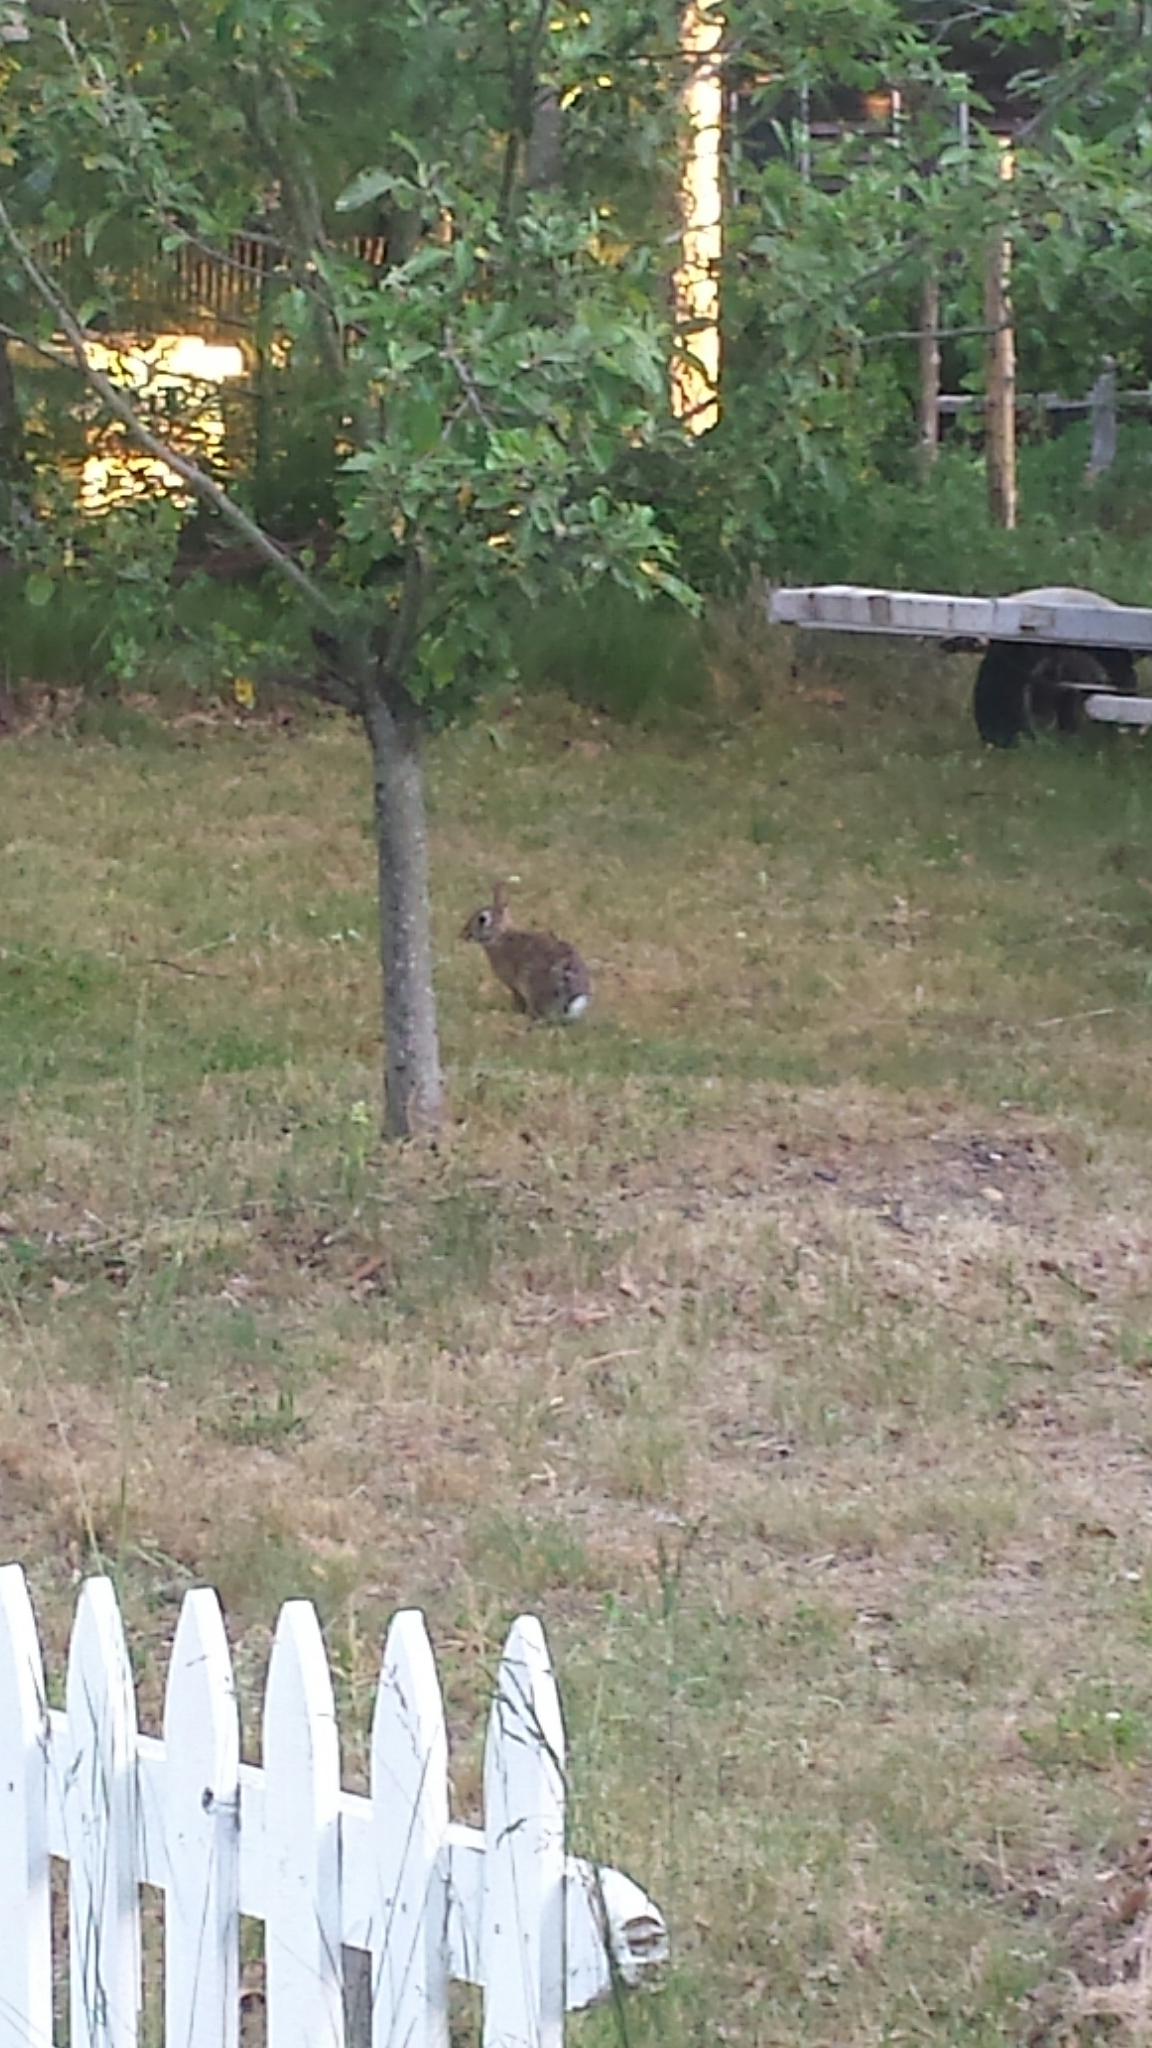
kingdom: Animalia
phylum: Chordata
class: Mammalia
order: Lagomorpha
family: Leporidae
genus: Sylvilagus
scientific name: Sylvilagus floridanus
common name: Eastern cottontail
